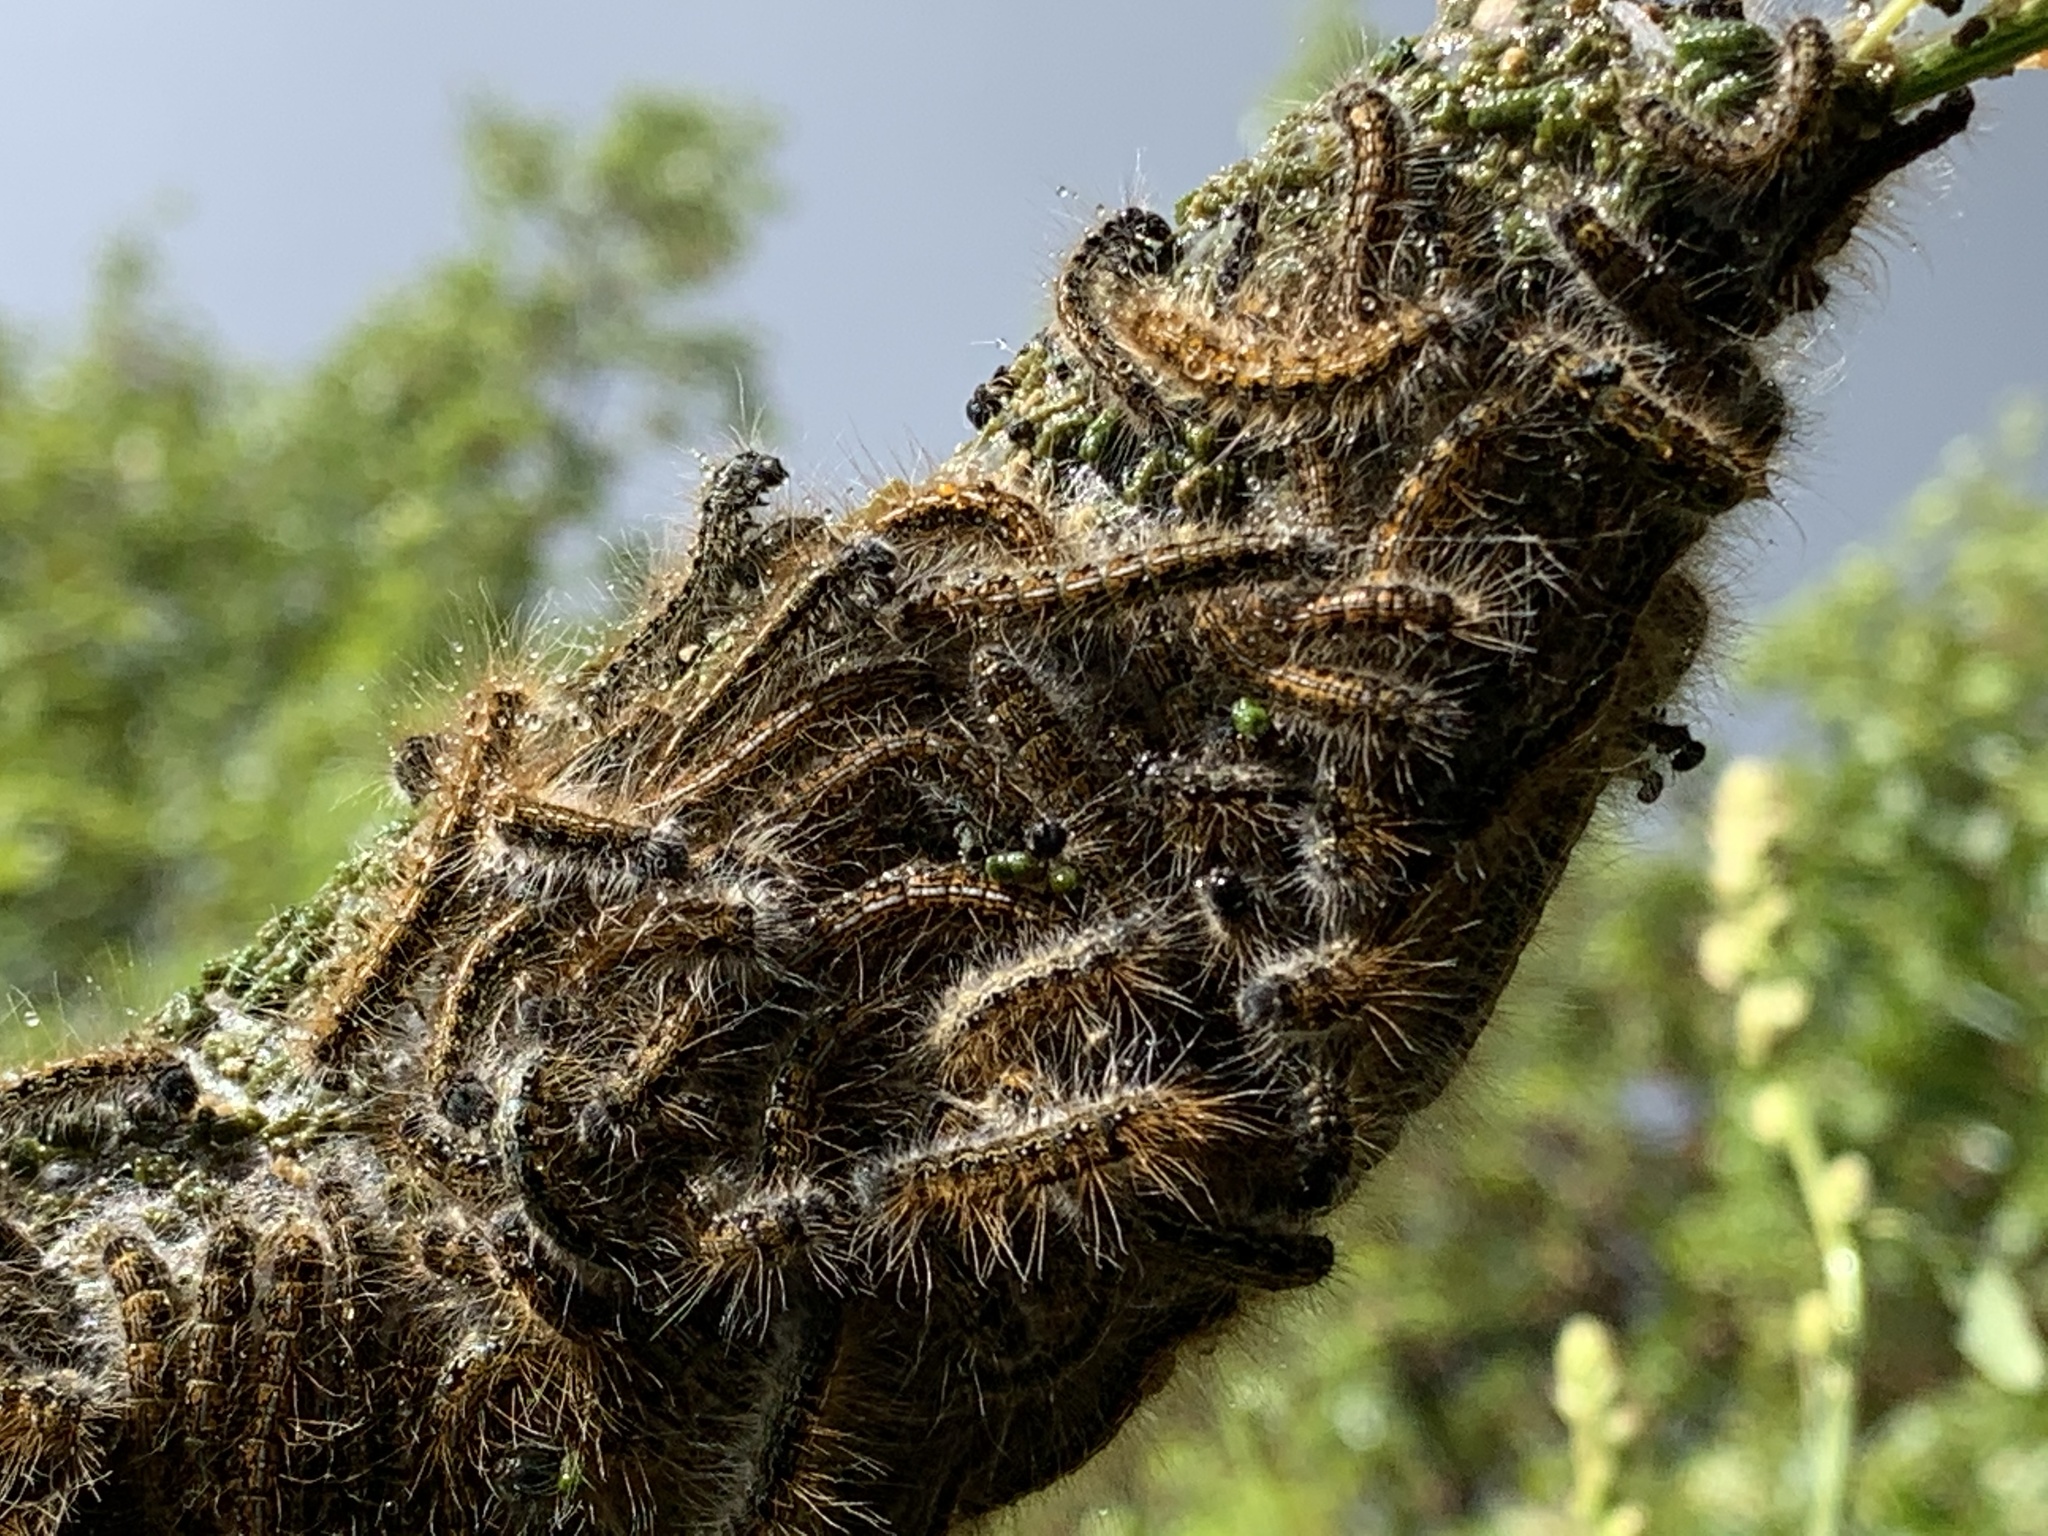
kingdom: Animalia
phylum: Arthropoda
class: Insecta
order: Lepidoptera
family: Lasiocampidae
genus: Malacosoma
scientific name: Malacosoma californica
